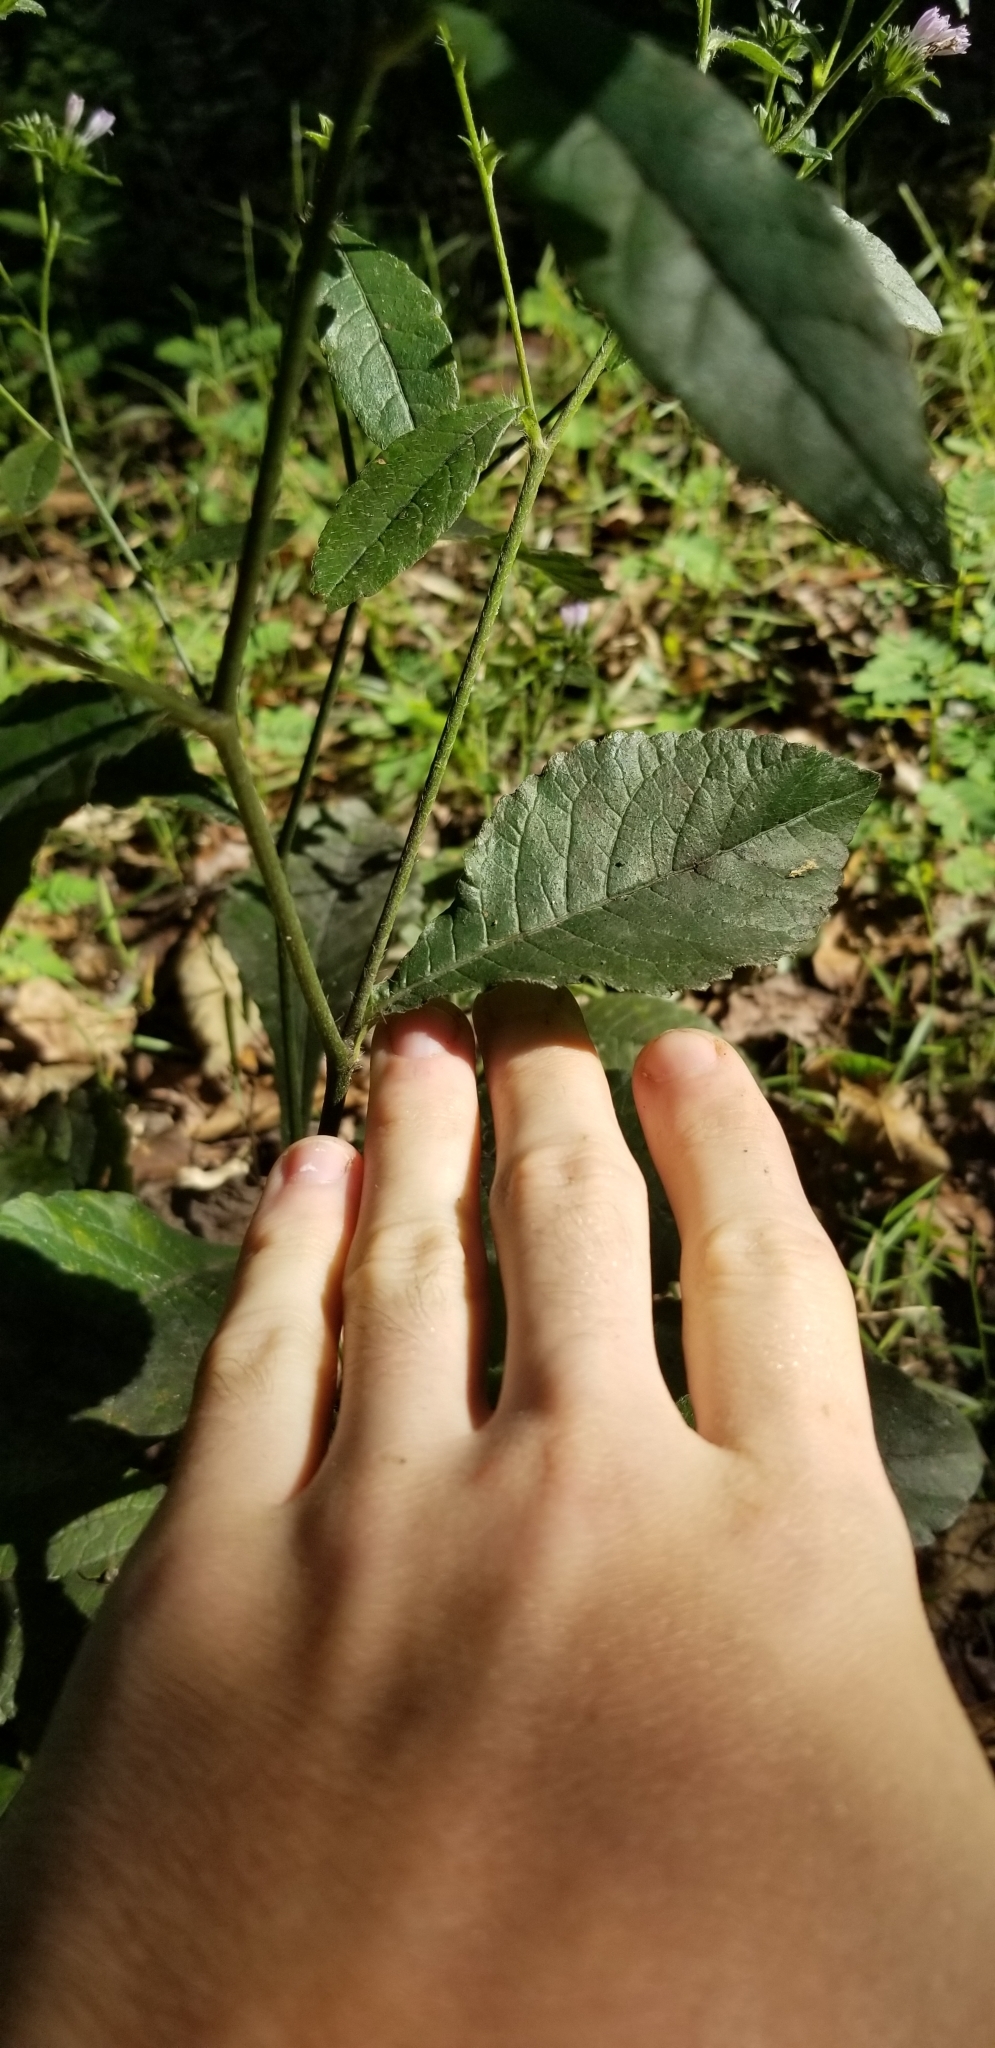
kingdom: Plantae
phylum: Tracheophyta
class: Magnoliopsida
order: Asterales
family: Asteraceae
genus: Elephantopus
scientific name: Elephantopus carolinianus
